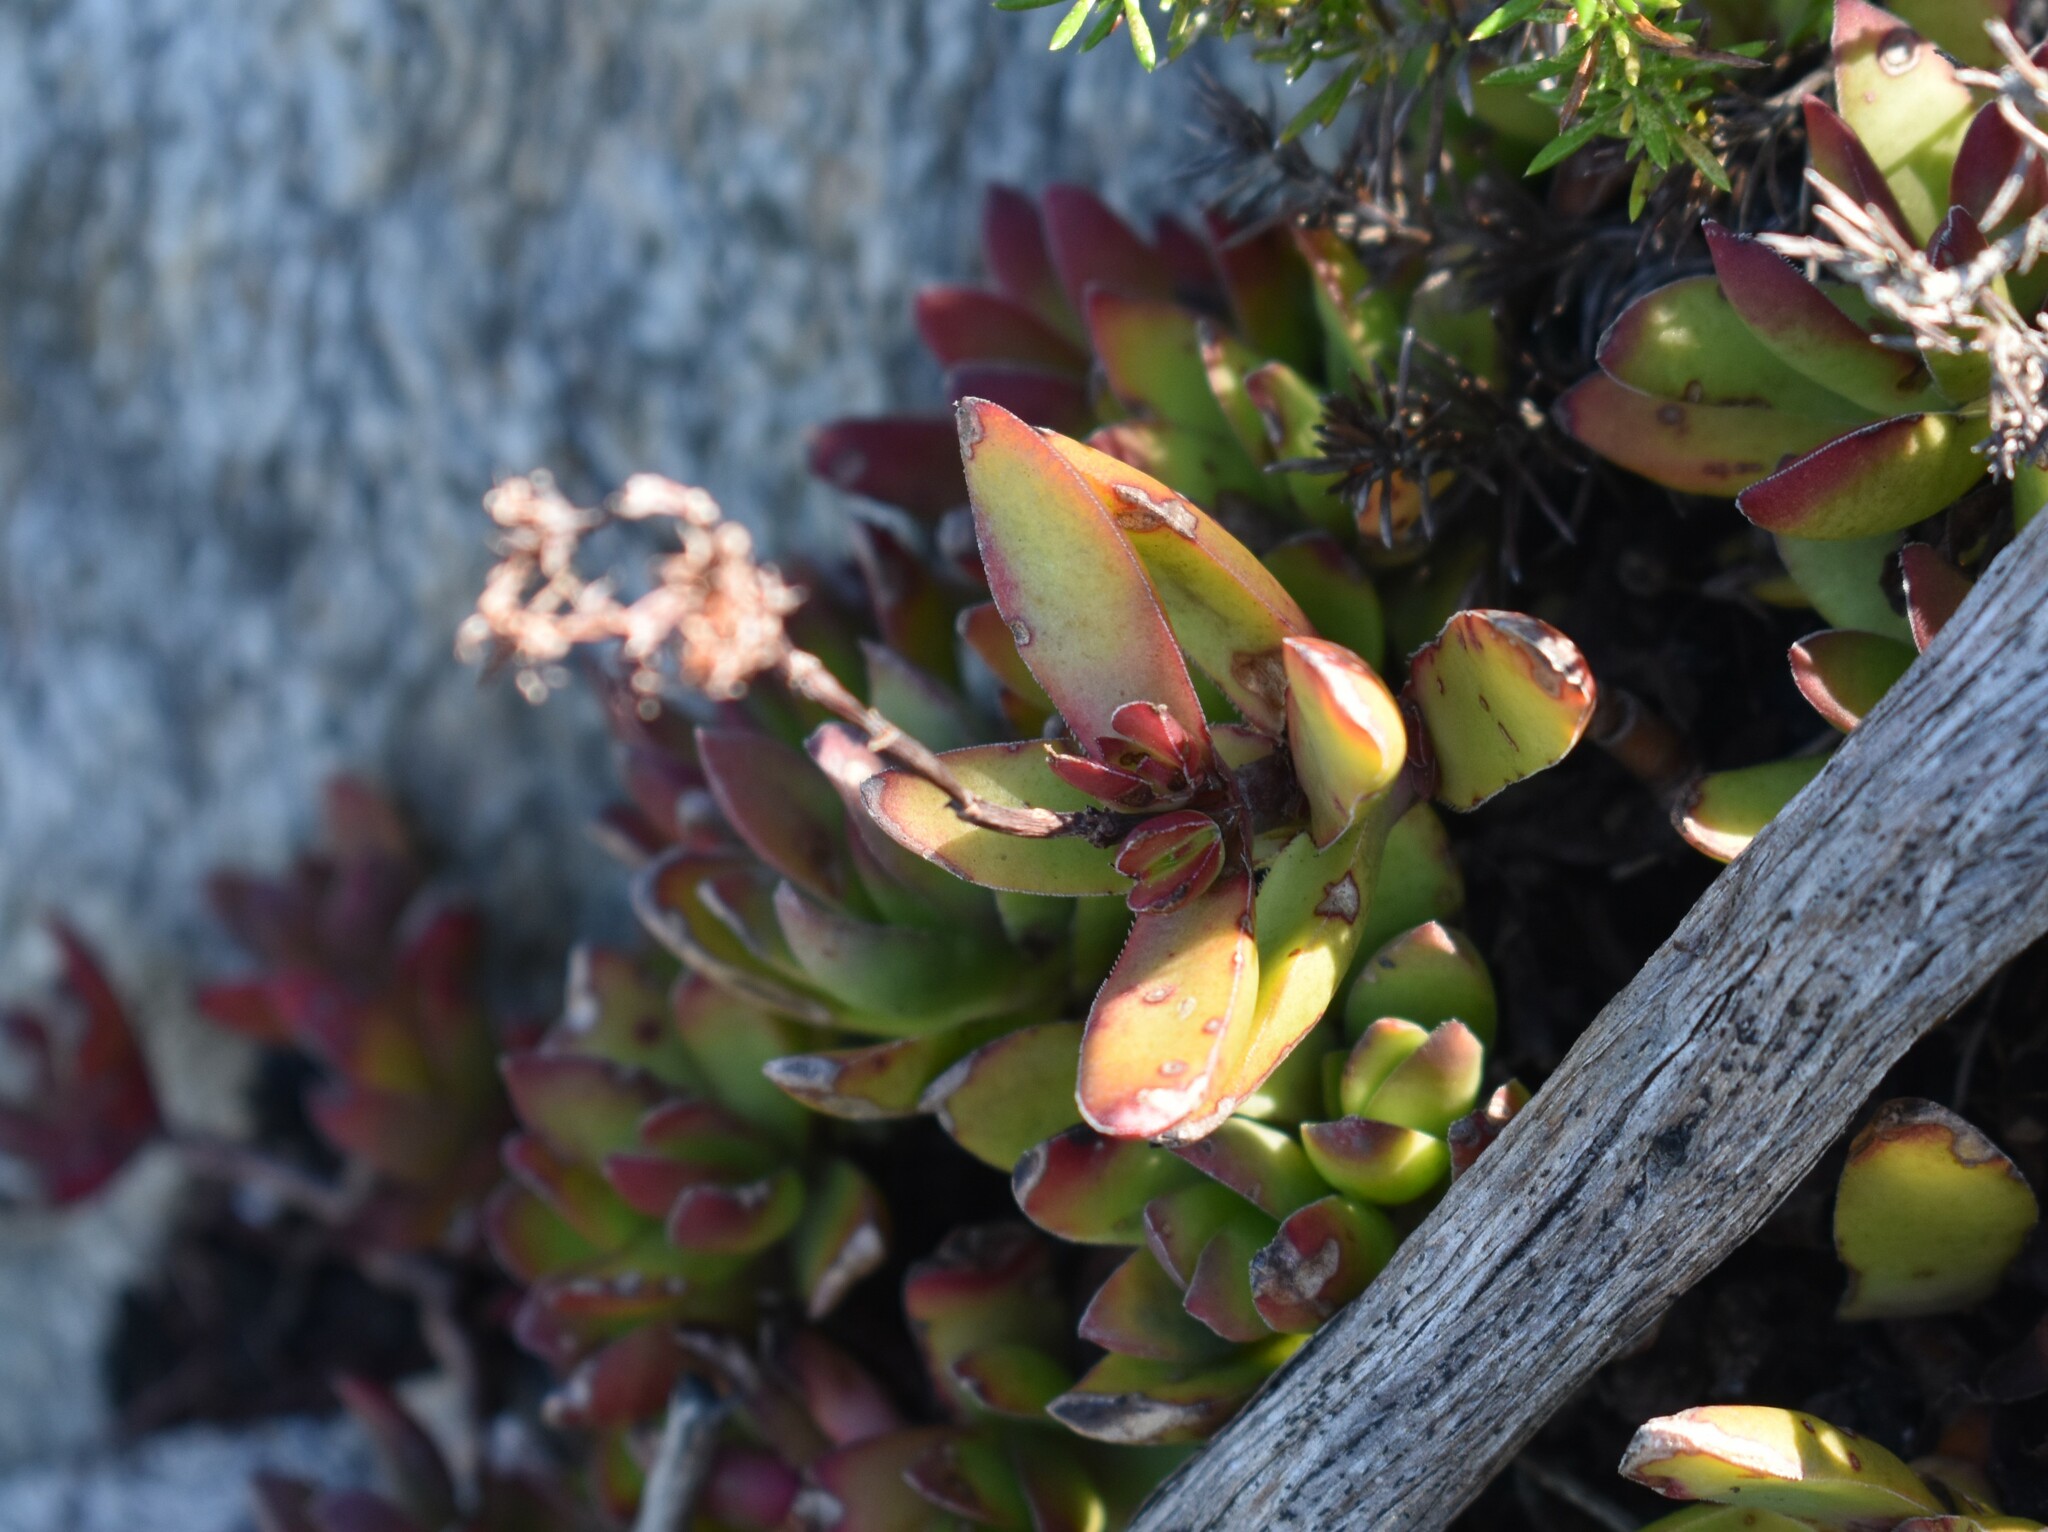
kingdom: Plantae
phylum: Tracheophyta
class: Magnoliopsida
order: Saxifragales
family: Crassulaceae
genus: Crassula
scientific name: Crassula rubricaulis
